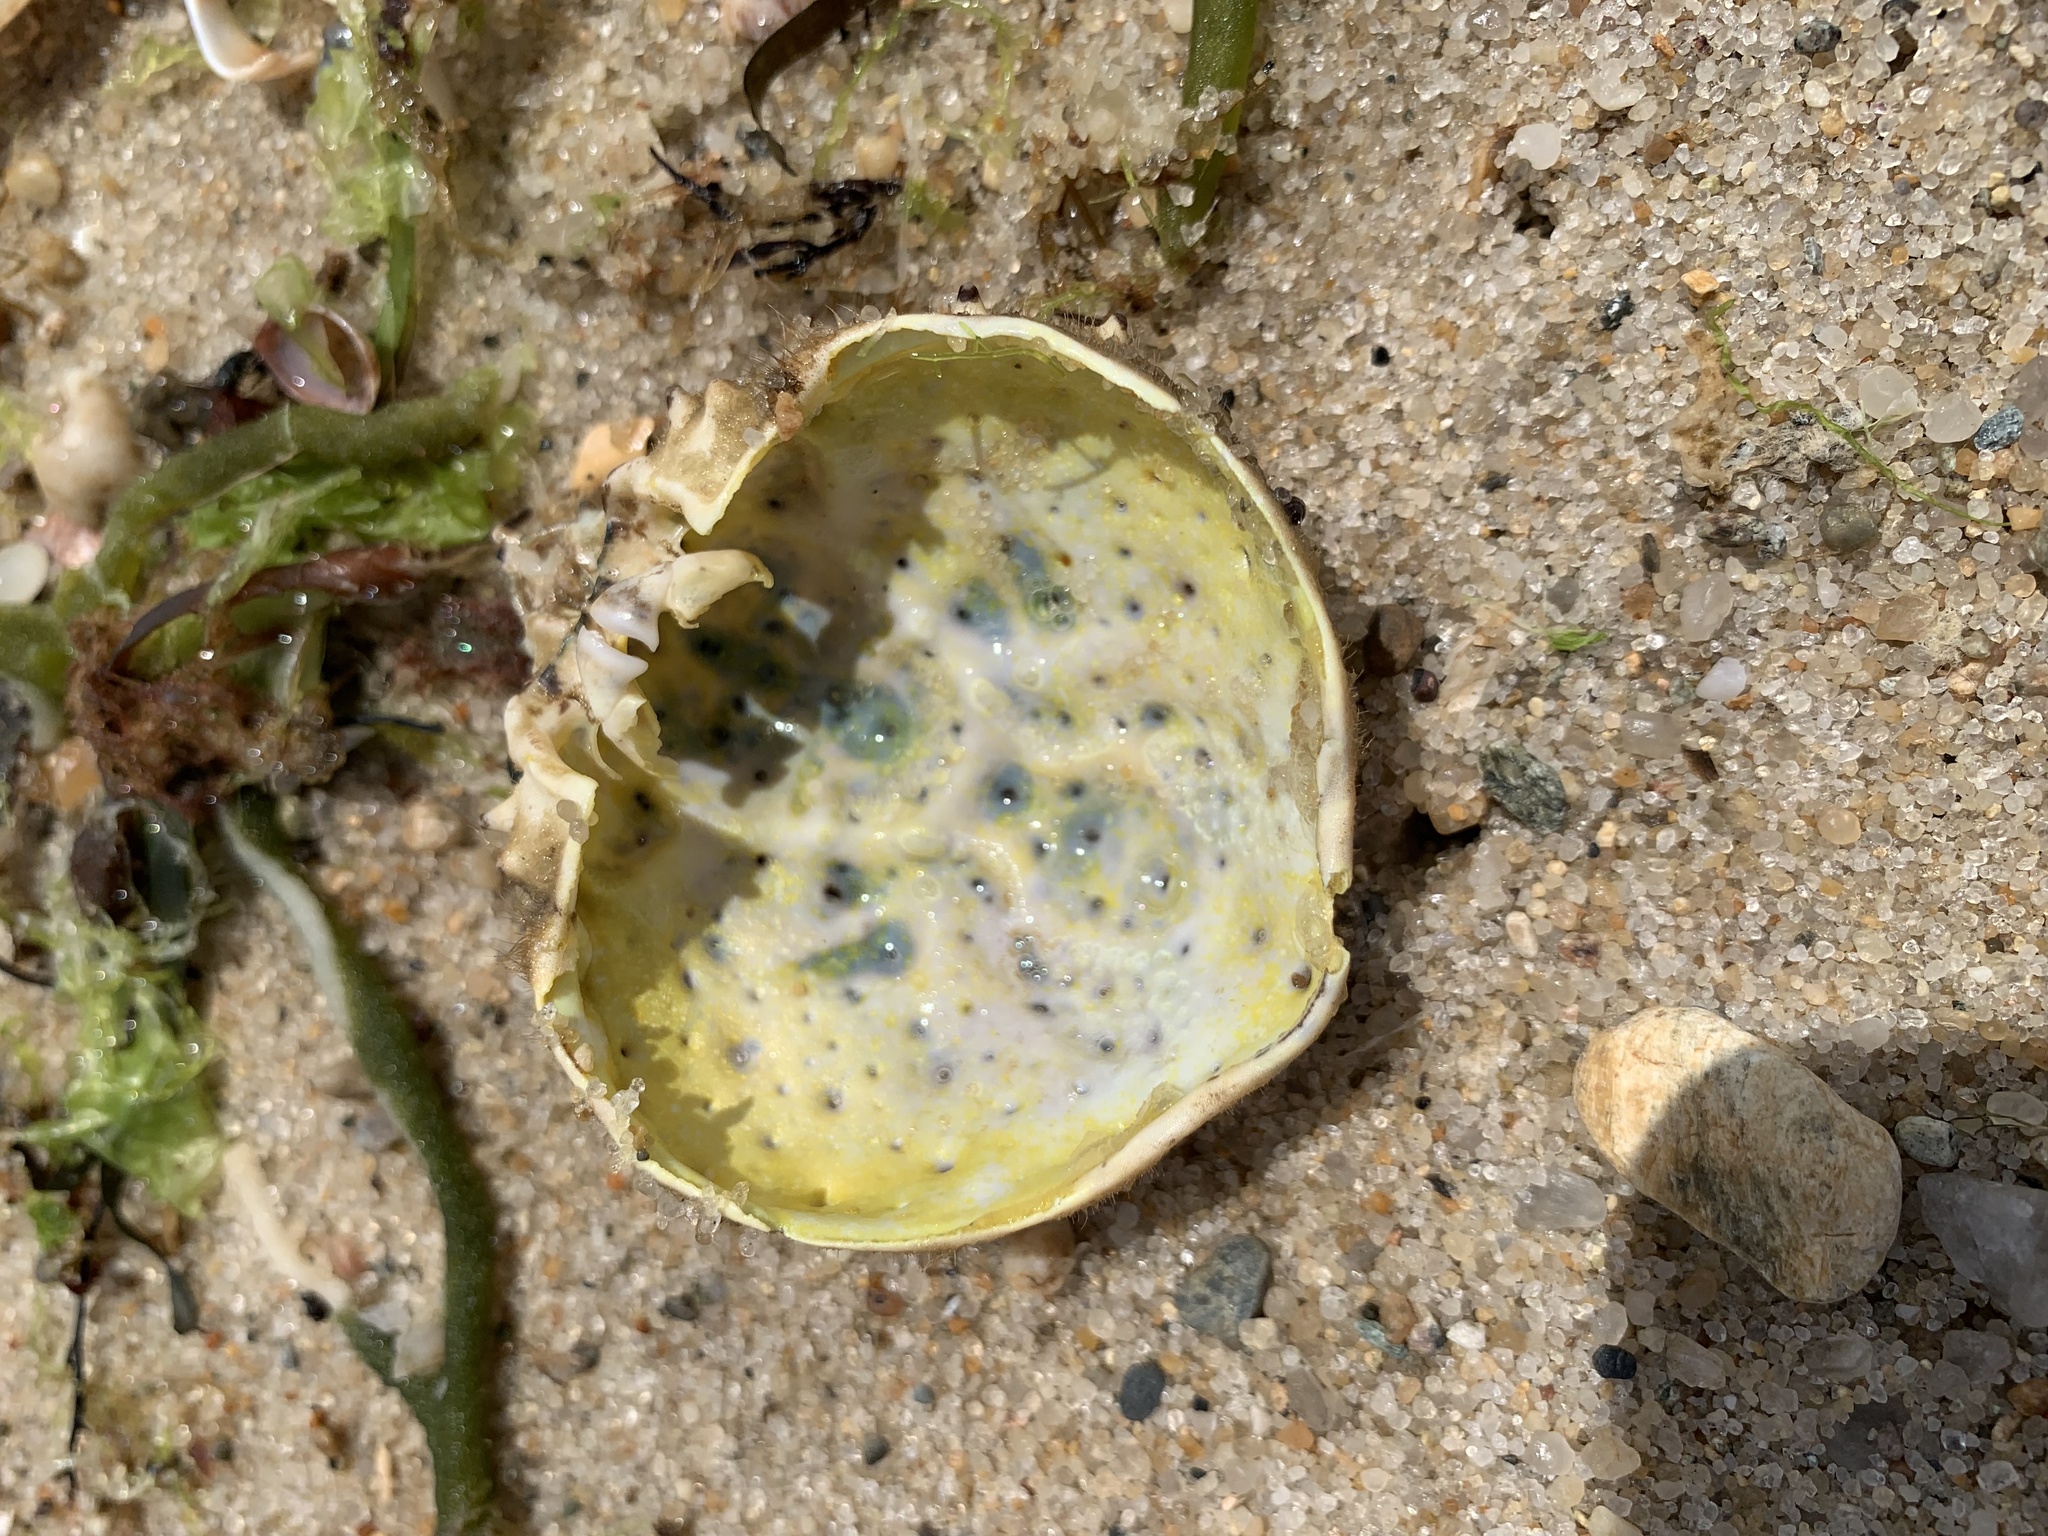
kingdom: Animalia
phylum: Arthropoda
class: Malacostraca
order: Decapoda
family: Epialtidae
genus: Libinia
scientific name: Libinia emarginata
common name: Common spider crab
